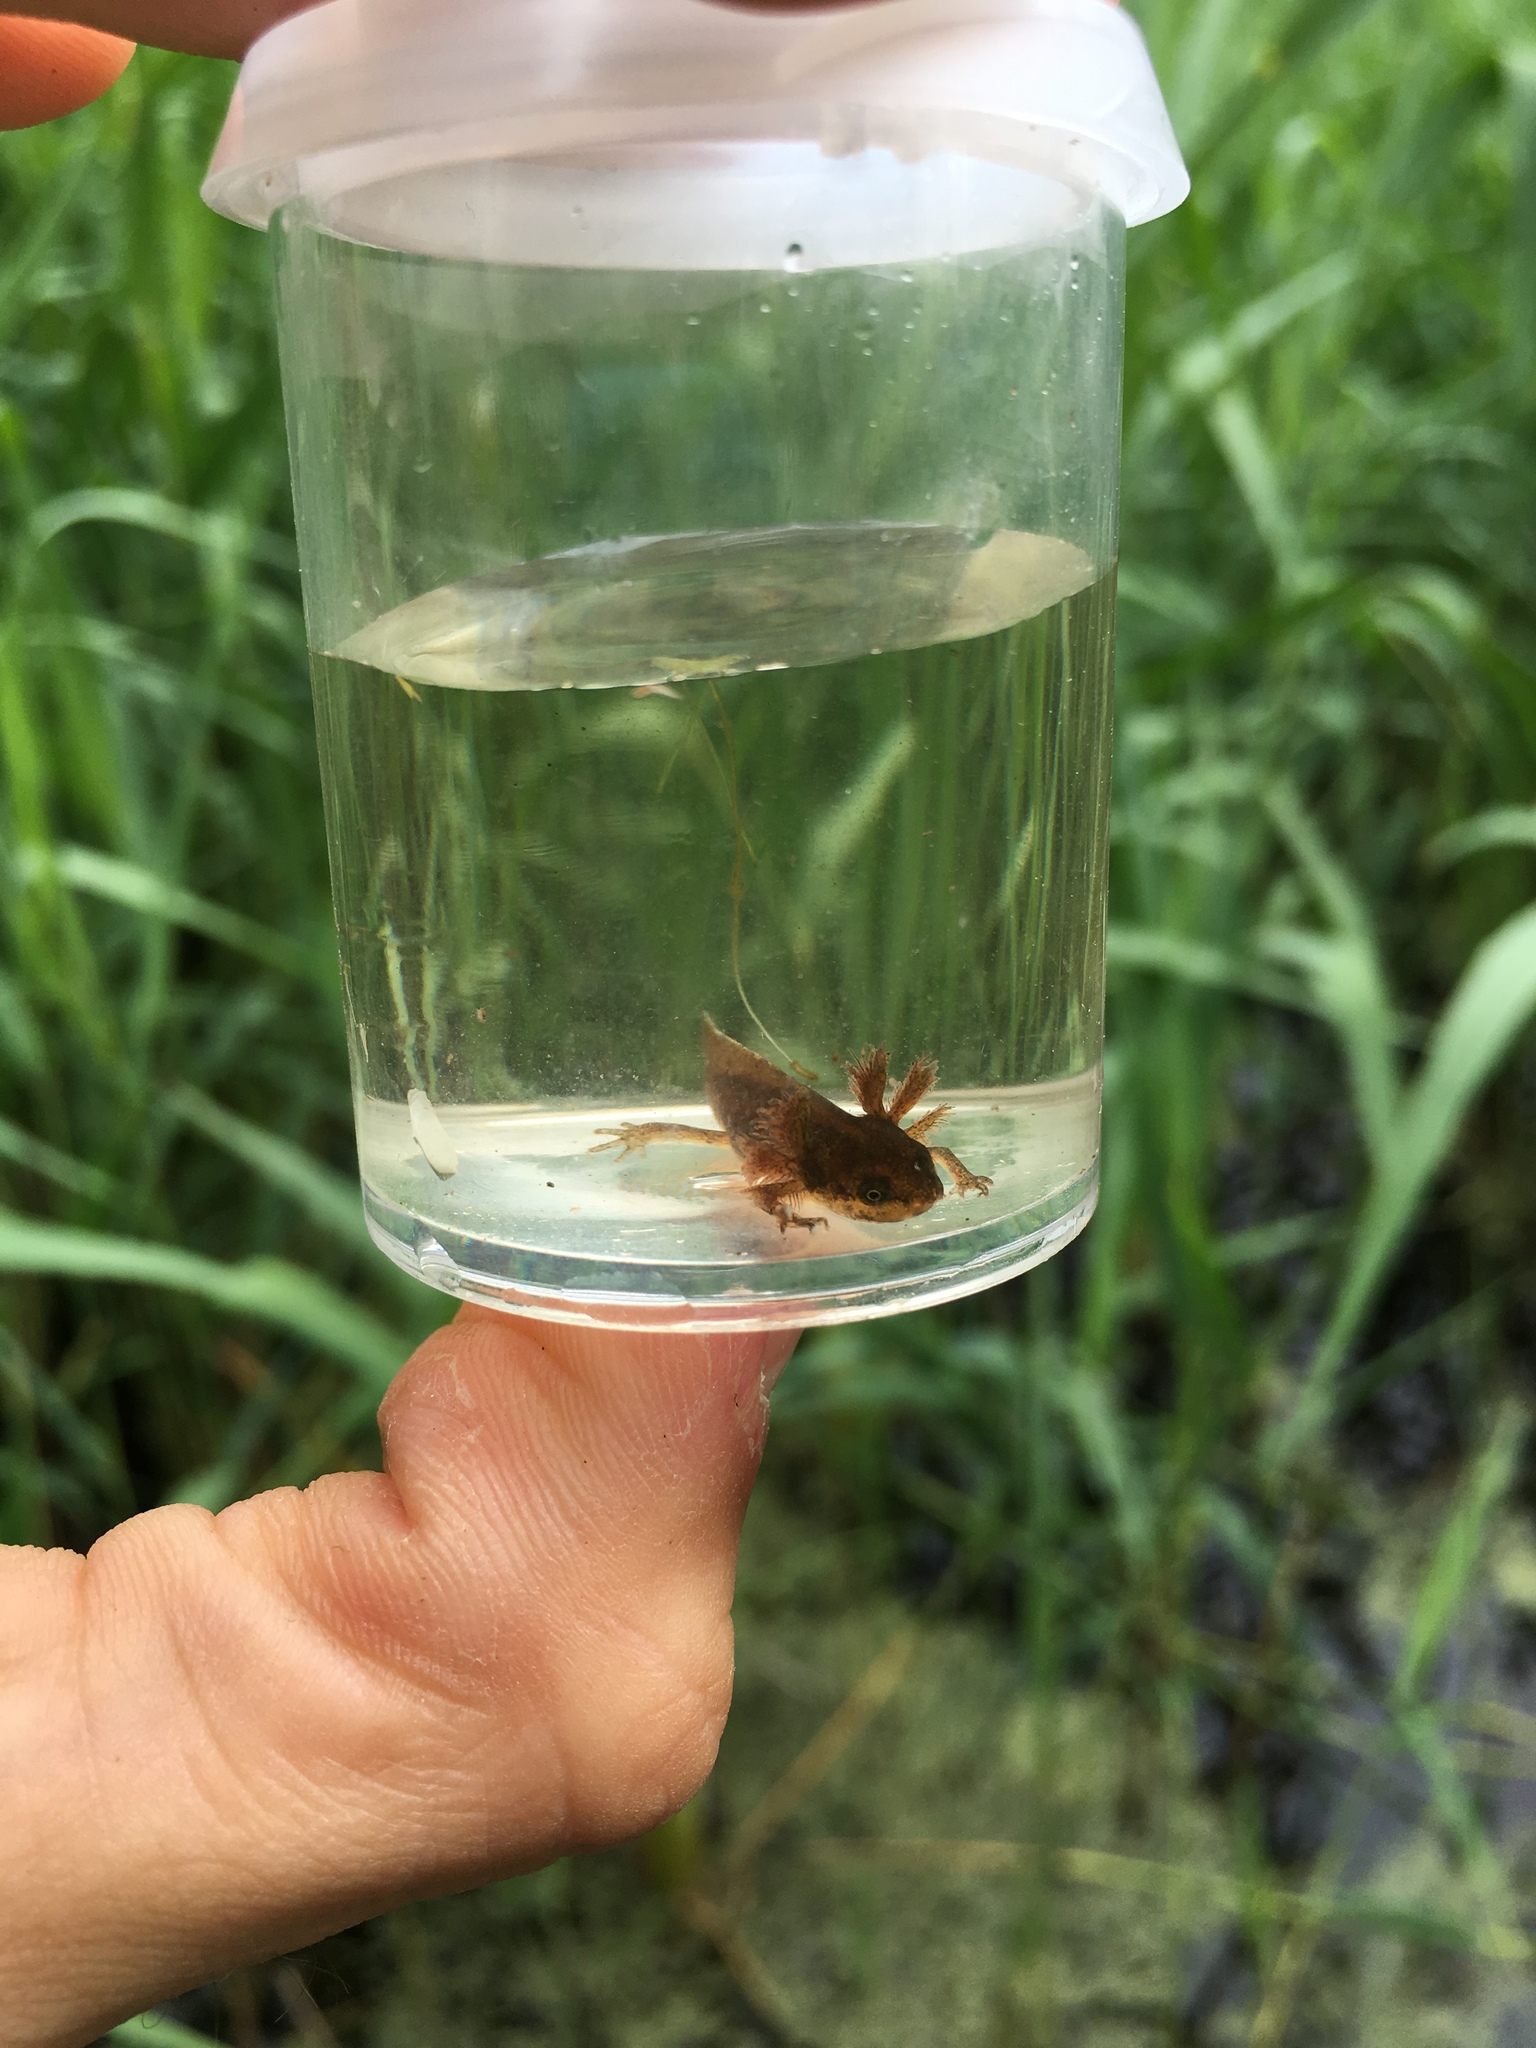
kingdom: Animalia
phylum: Chordata
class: Amphibia
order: Caudata
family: Salamandridae
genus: Lissotriton
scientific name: Lissotriton
